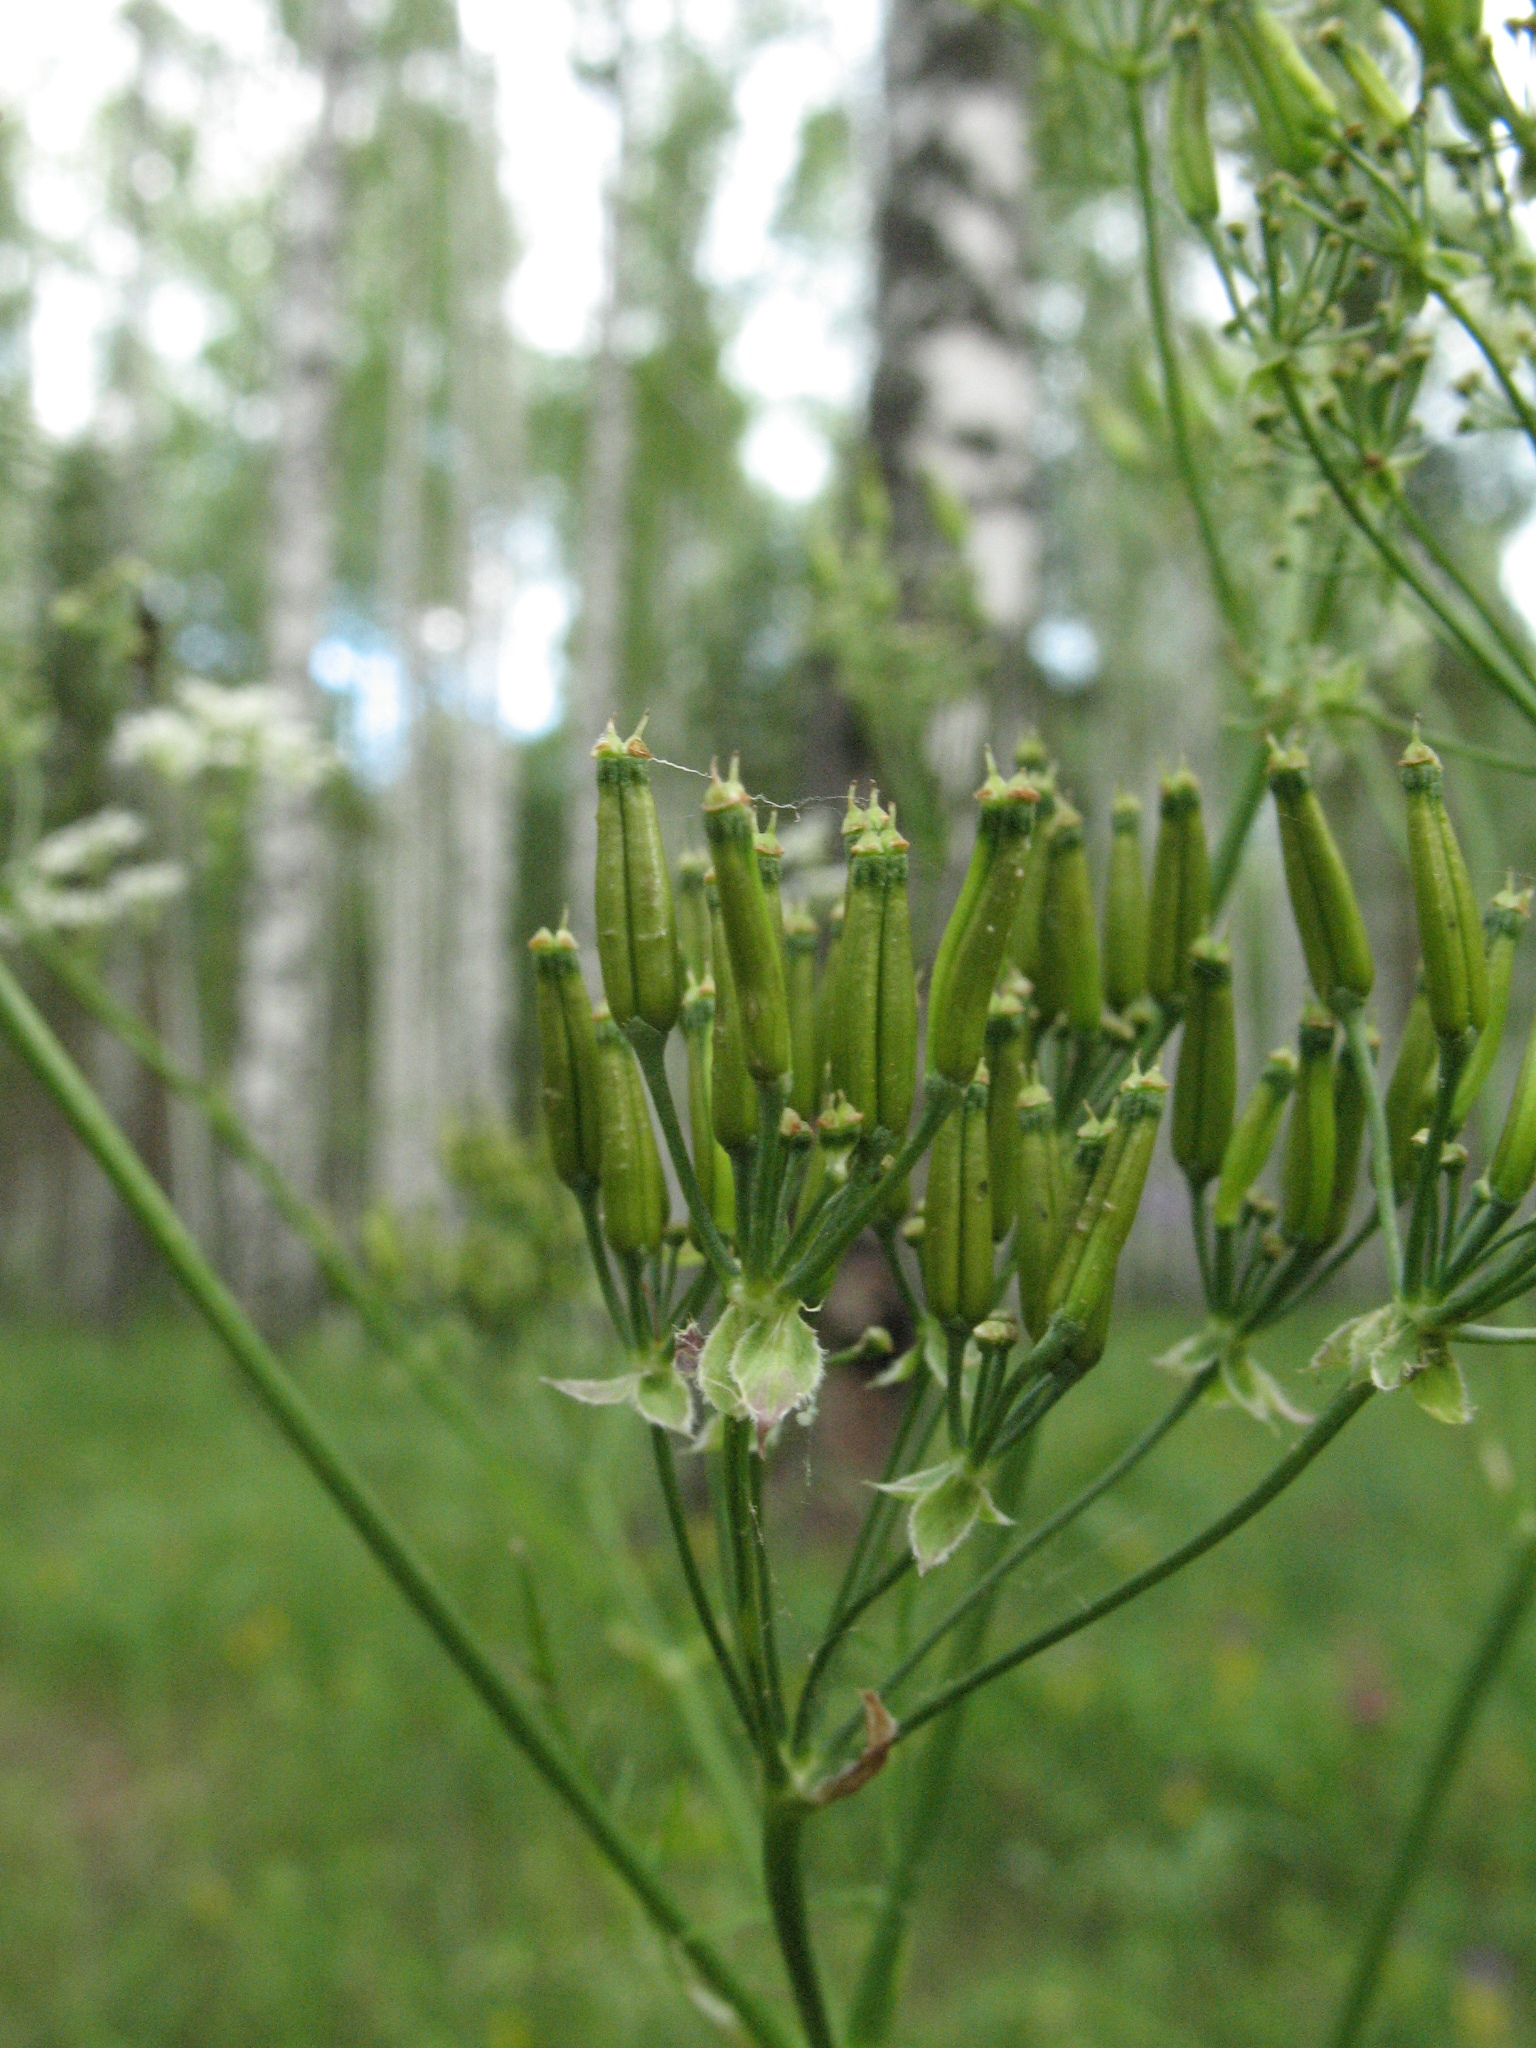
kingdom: Plantae
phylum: Tracheophyta
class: Magnoliopsida
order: Apiales
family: Apiaceae
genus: Anthriscus
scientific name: Anthriscus sylvestris
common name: Cow parsley
